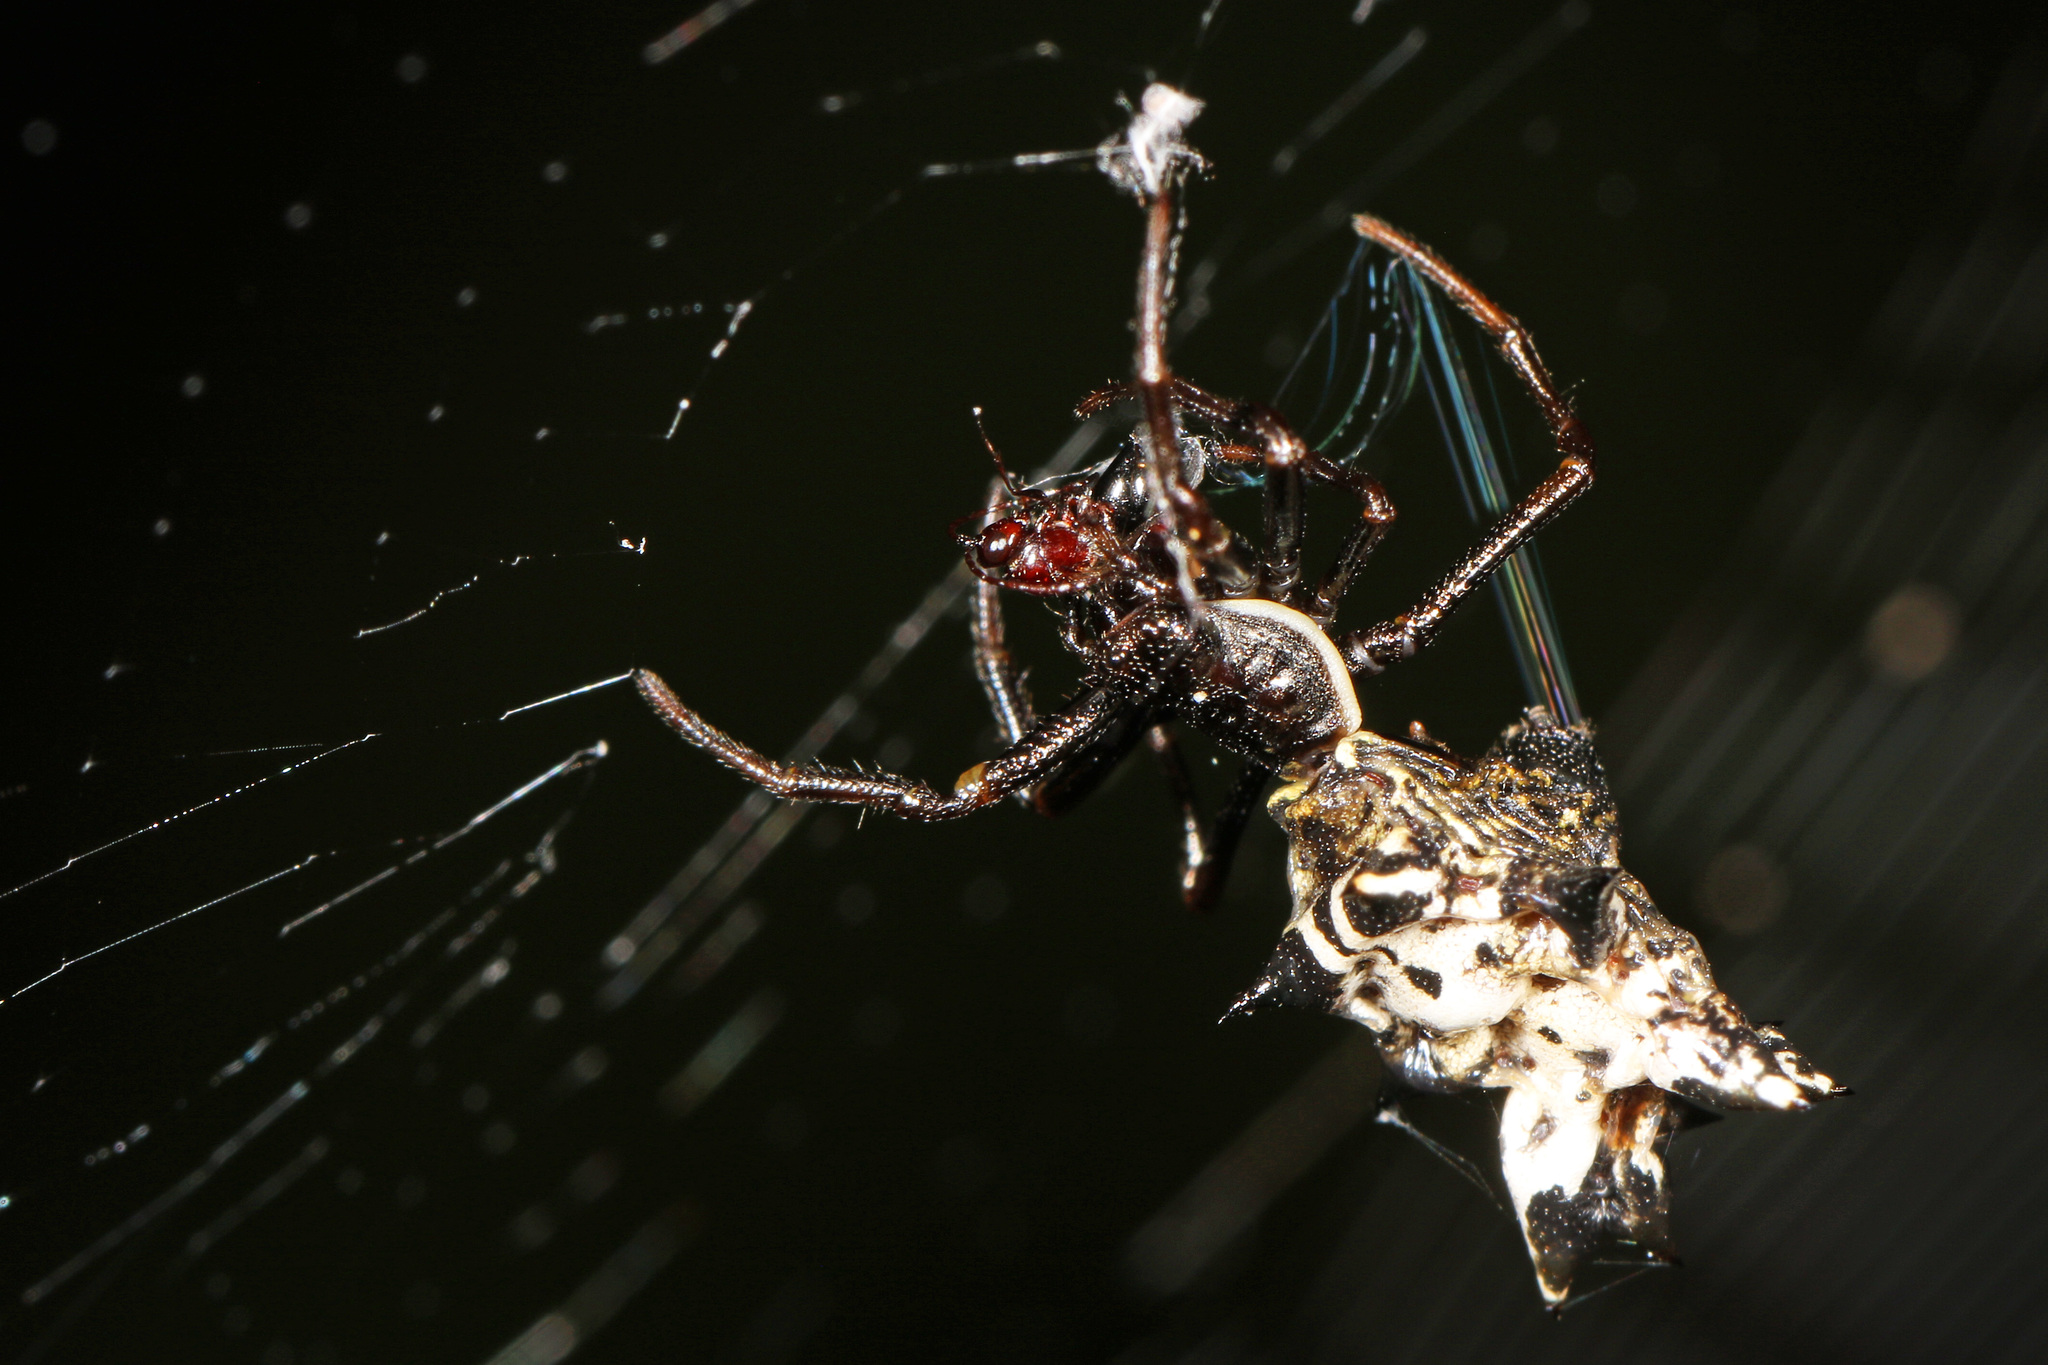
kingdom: Animalia
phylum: Arthropoda
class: Arachnida
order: Araneae
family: Araneidae
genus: Micrathena
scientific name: Micrathena gracilis
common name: Orb weavers
